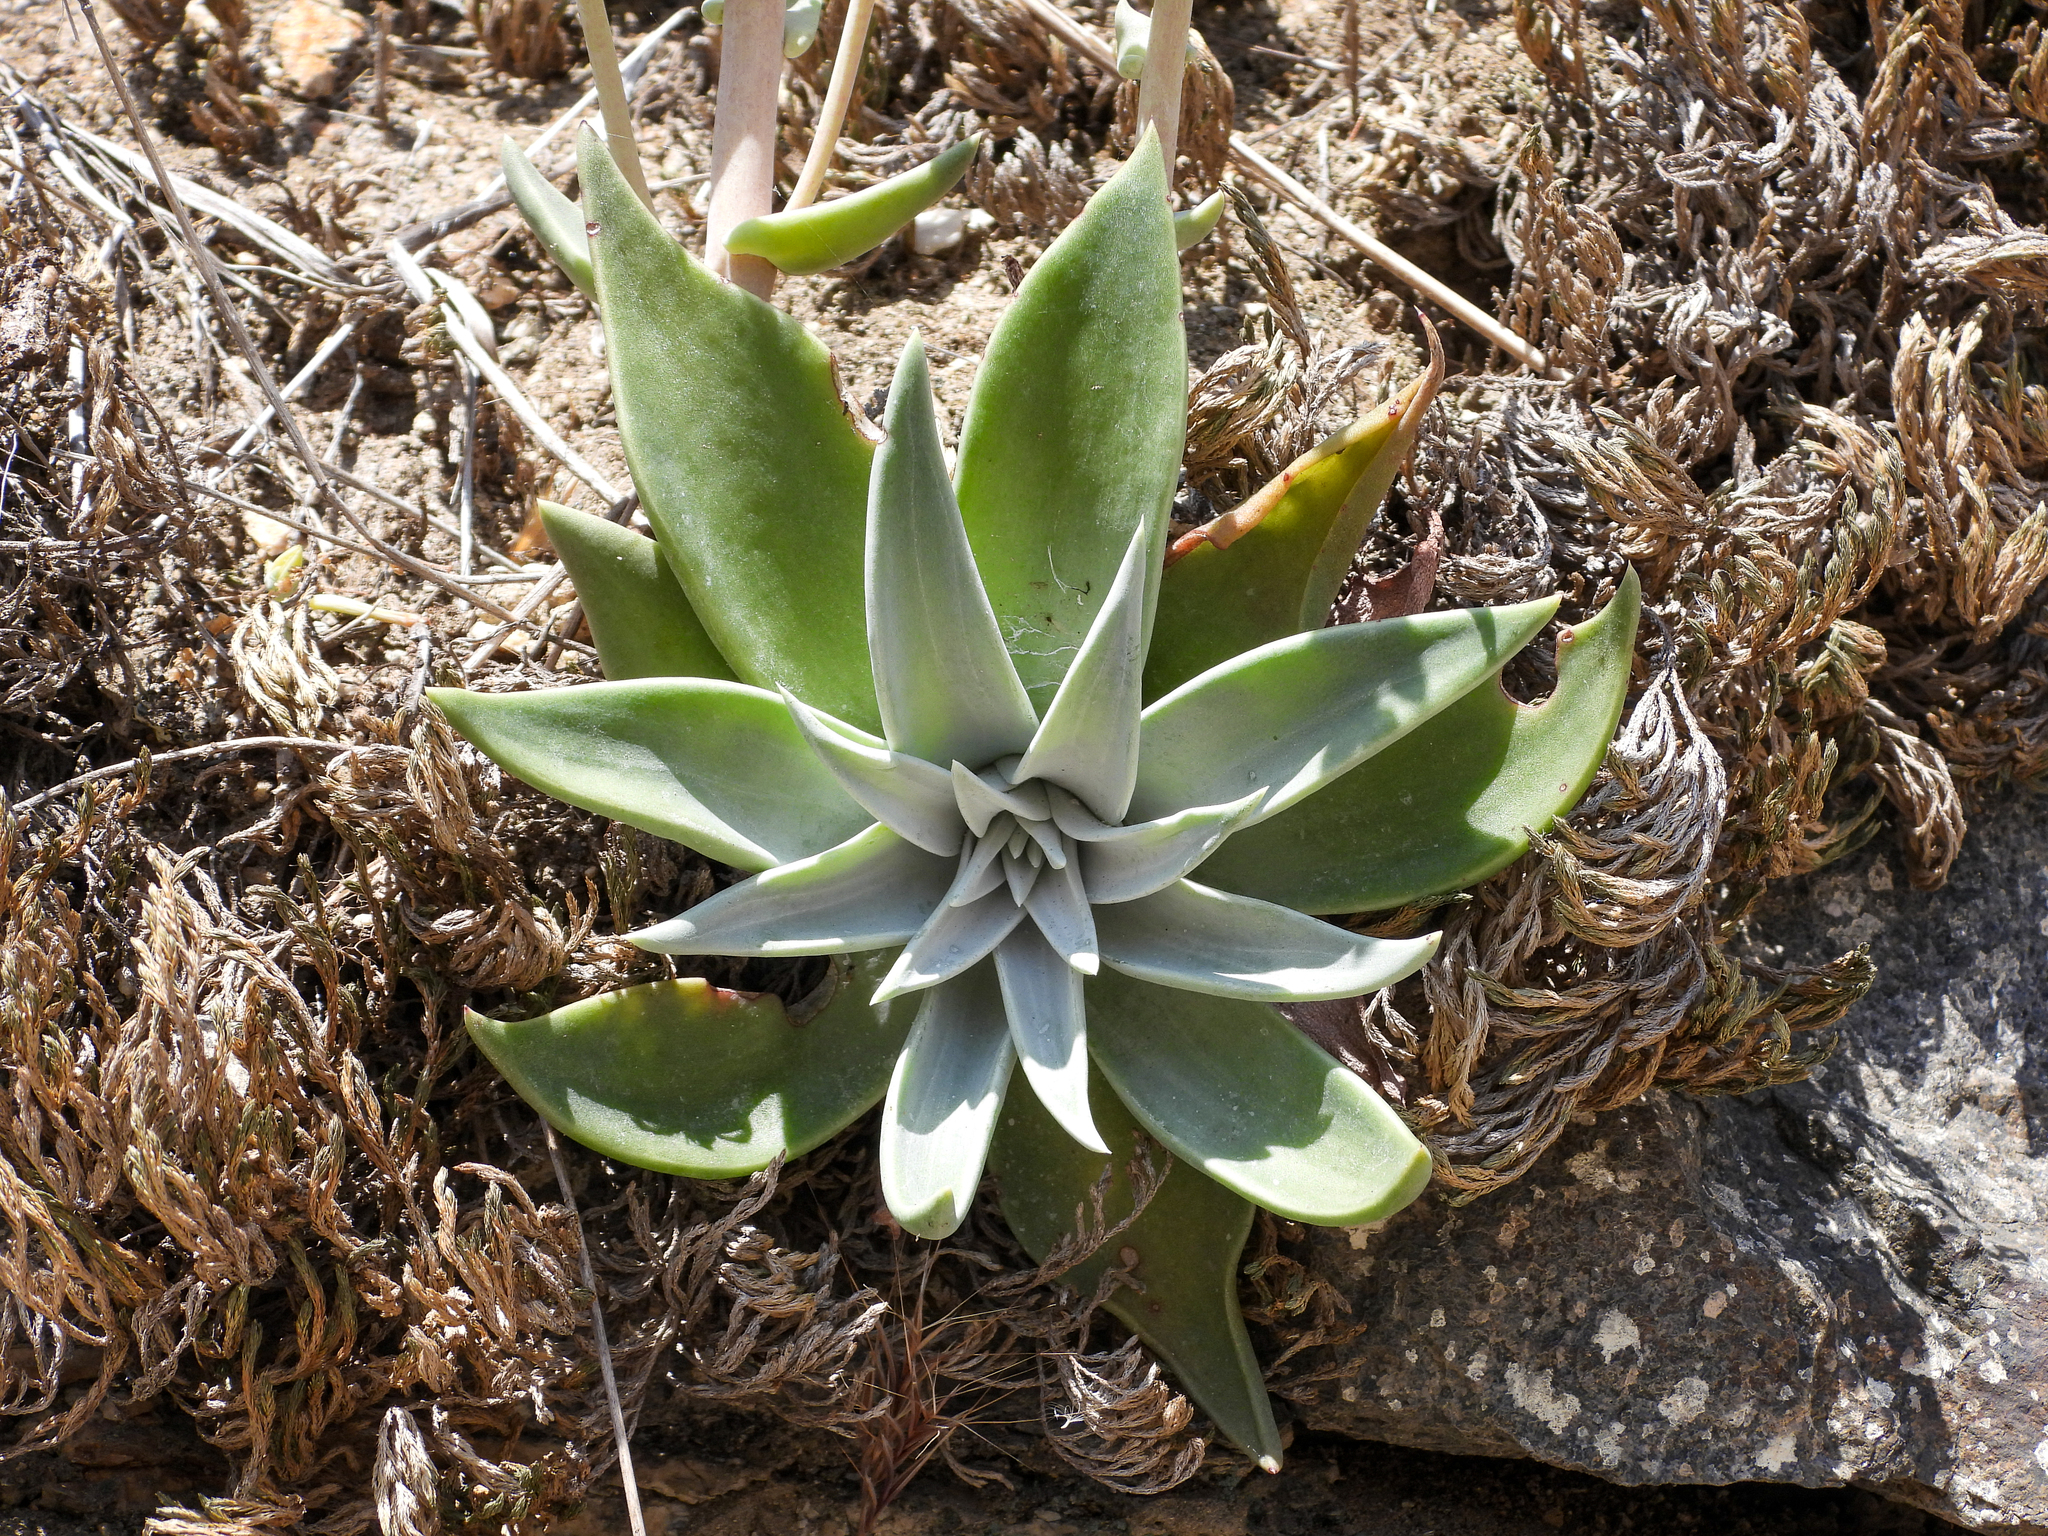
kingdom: Plantae
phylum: Tracheophyta
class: Magnoliopsida
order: Saxifragales
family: Crassulaceae
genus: Dudleya
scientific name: Dudleya abramsii
